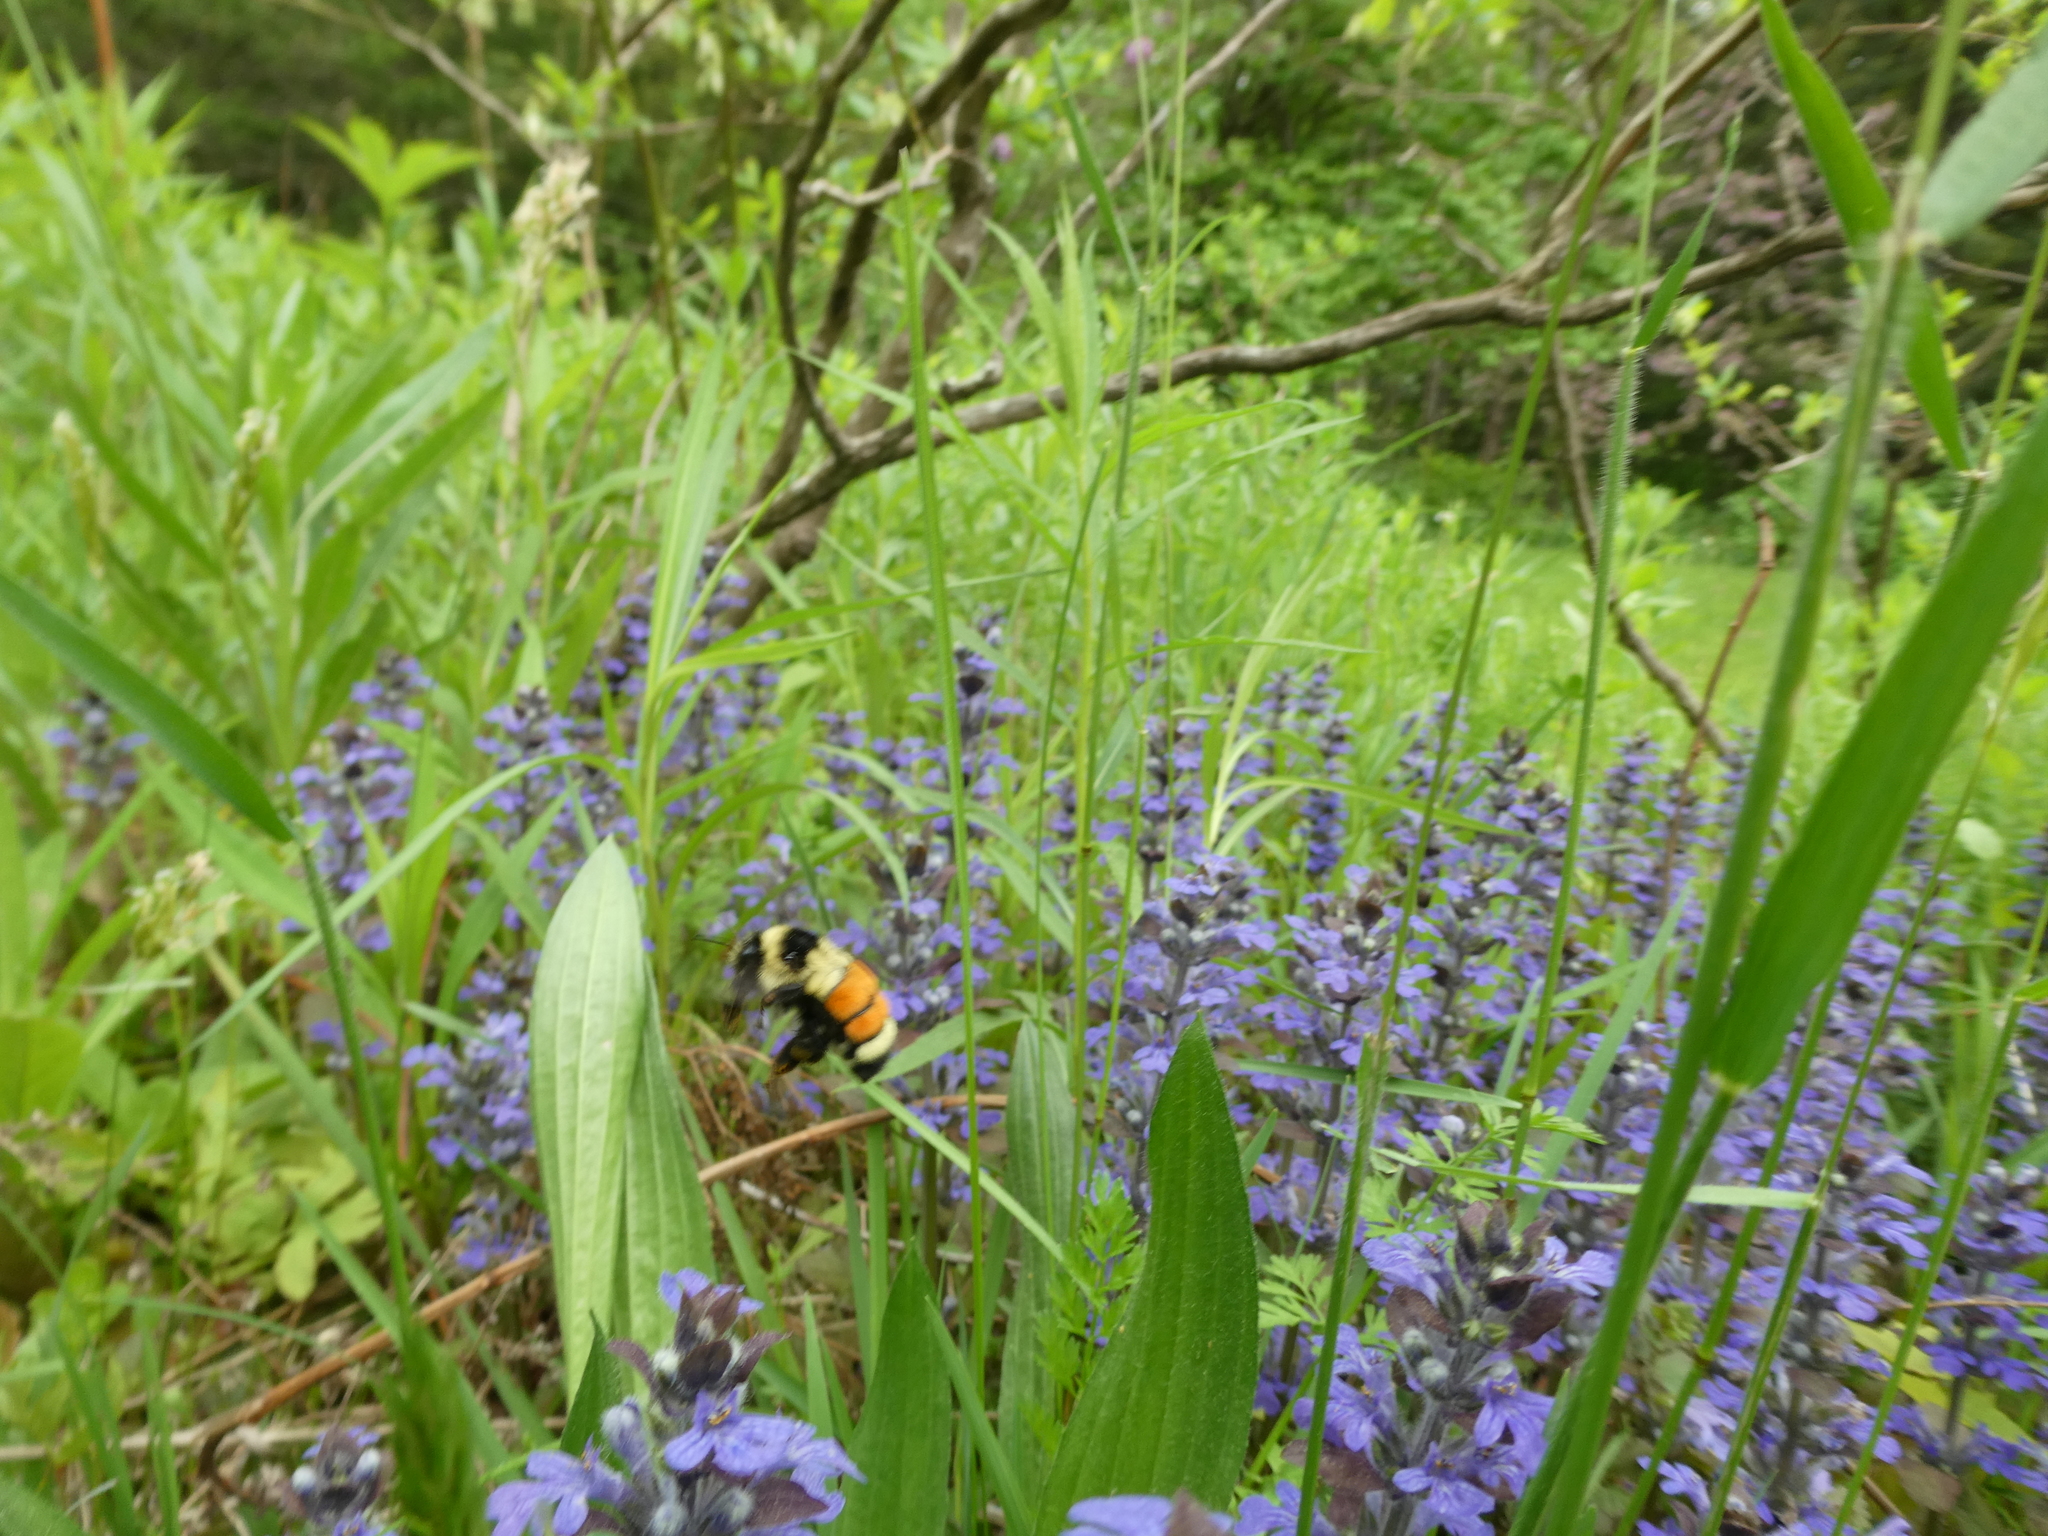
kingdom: Animalia
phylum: Arthropoda
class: Insecta
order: Hymenoptera
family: Apidae
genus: Bombus
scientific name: Bombus ternarius
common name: Tri-colored bumble bee
